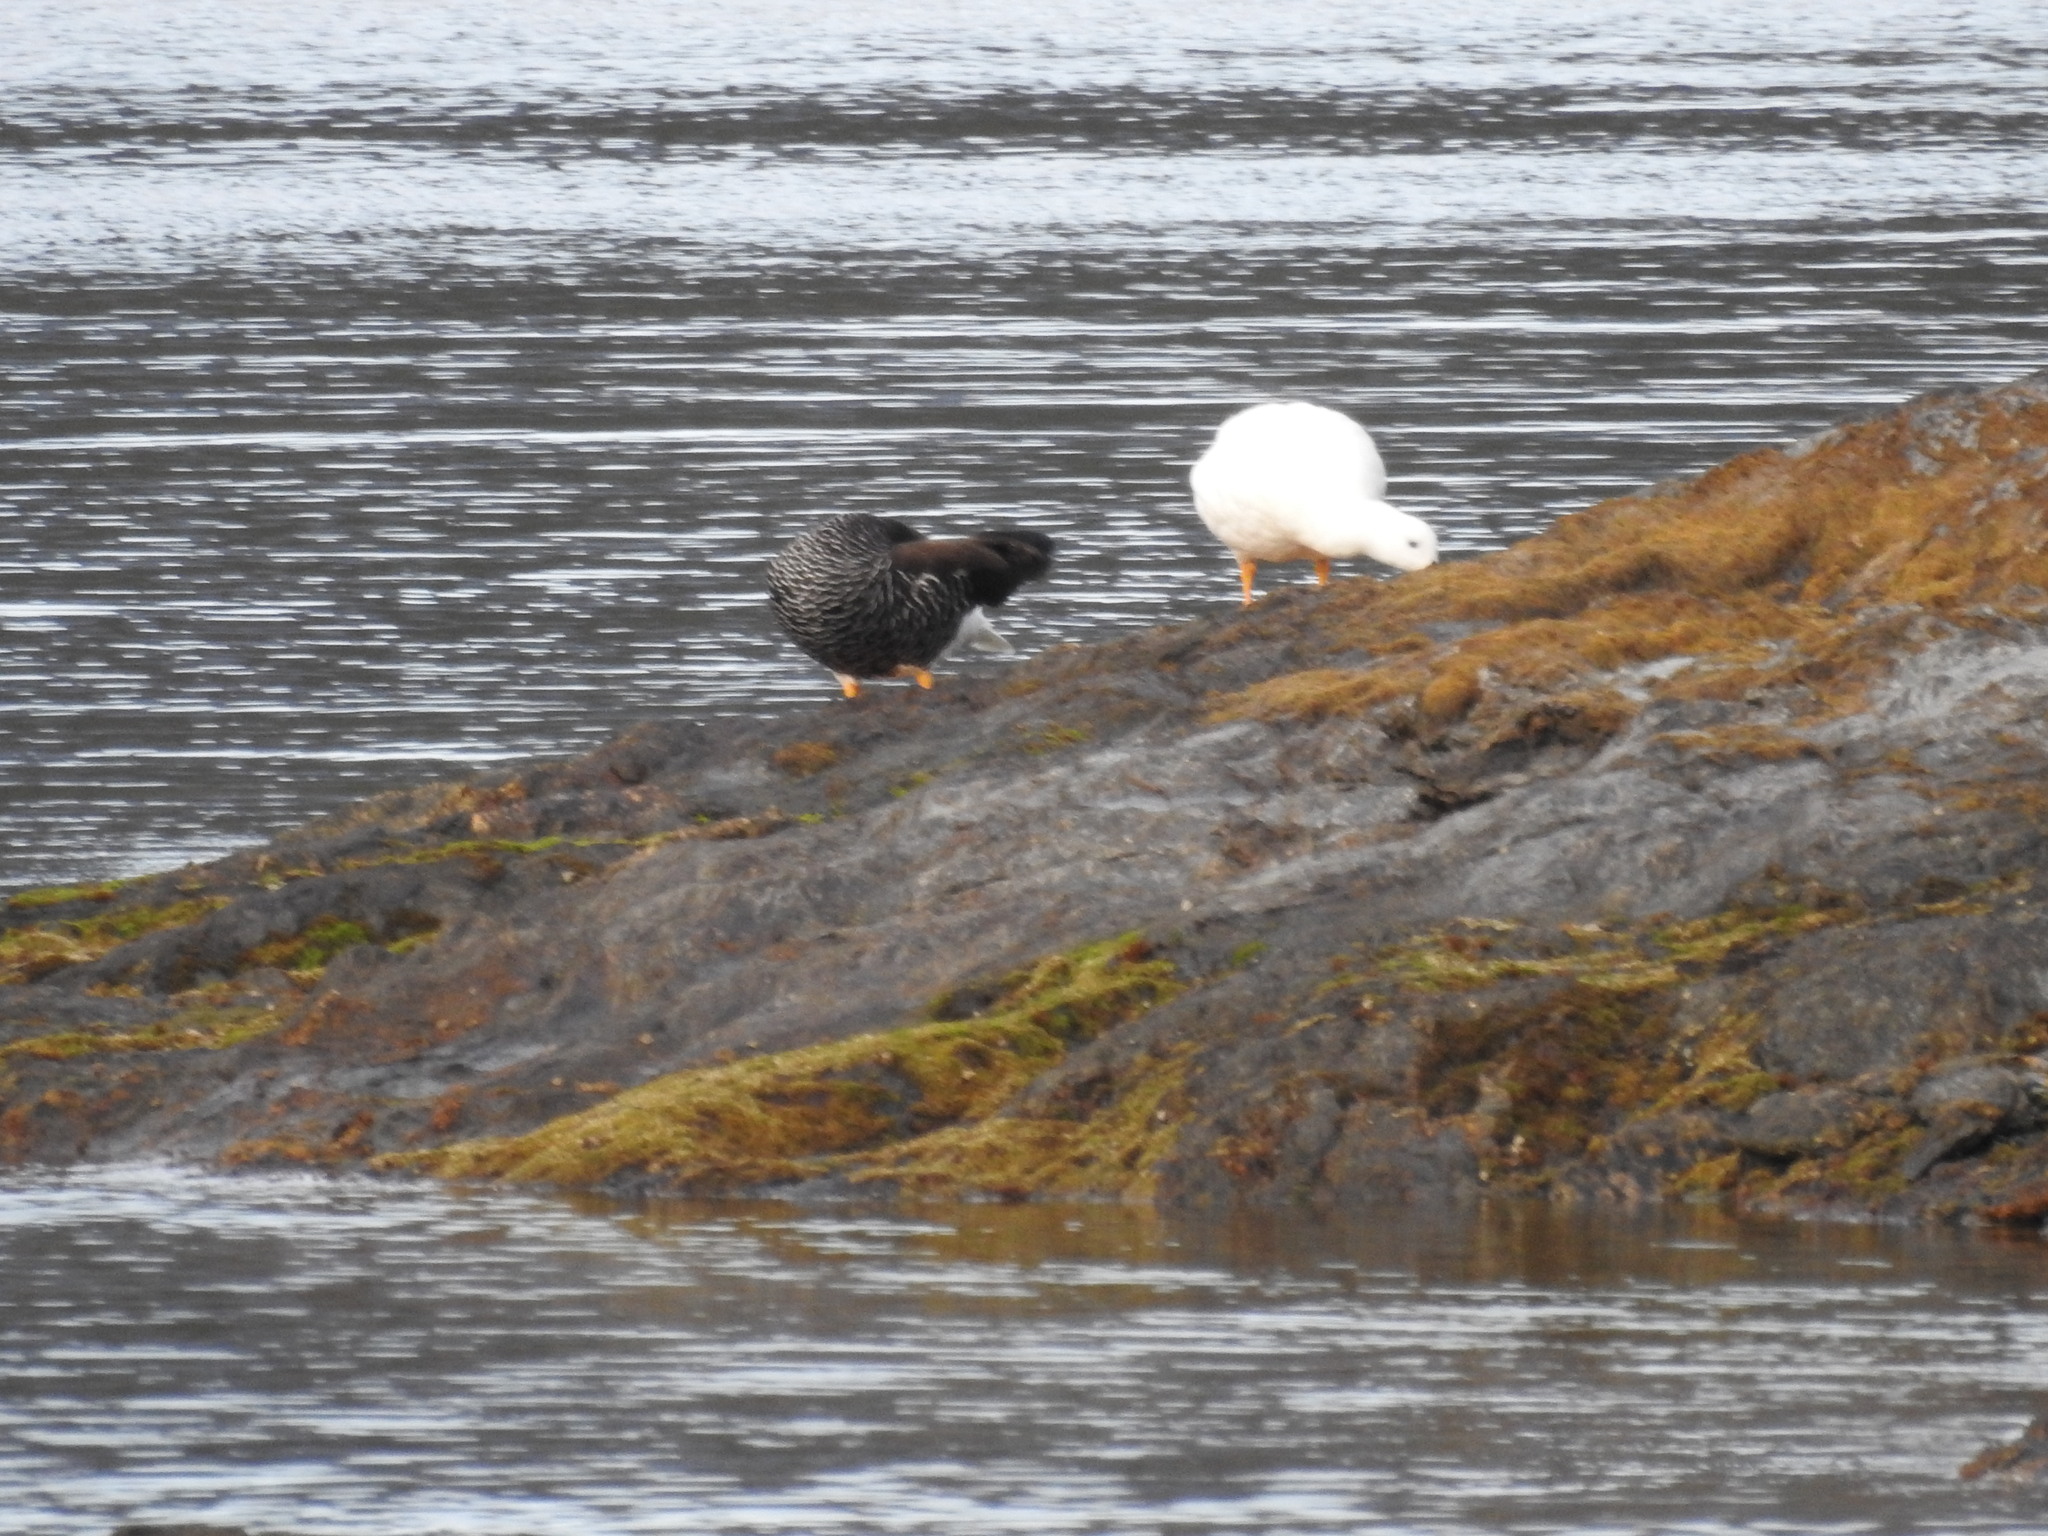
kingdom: Animalia
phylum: Chordata
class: Aves
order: Anseriformes
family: Anatidae
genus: Chloephaga
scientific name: Chloephaga hybrida
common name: Kelp goose
